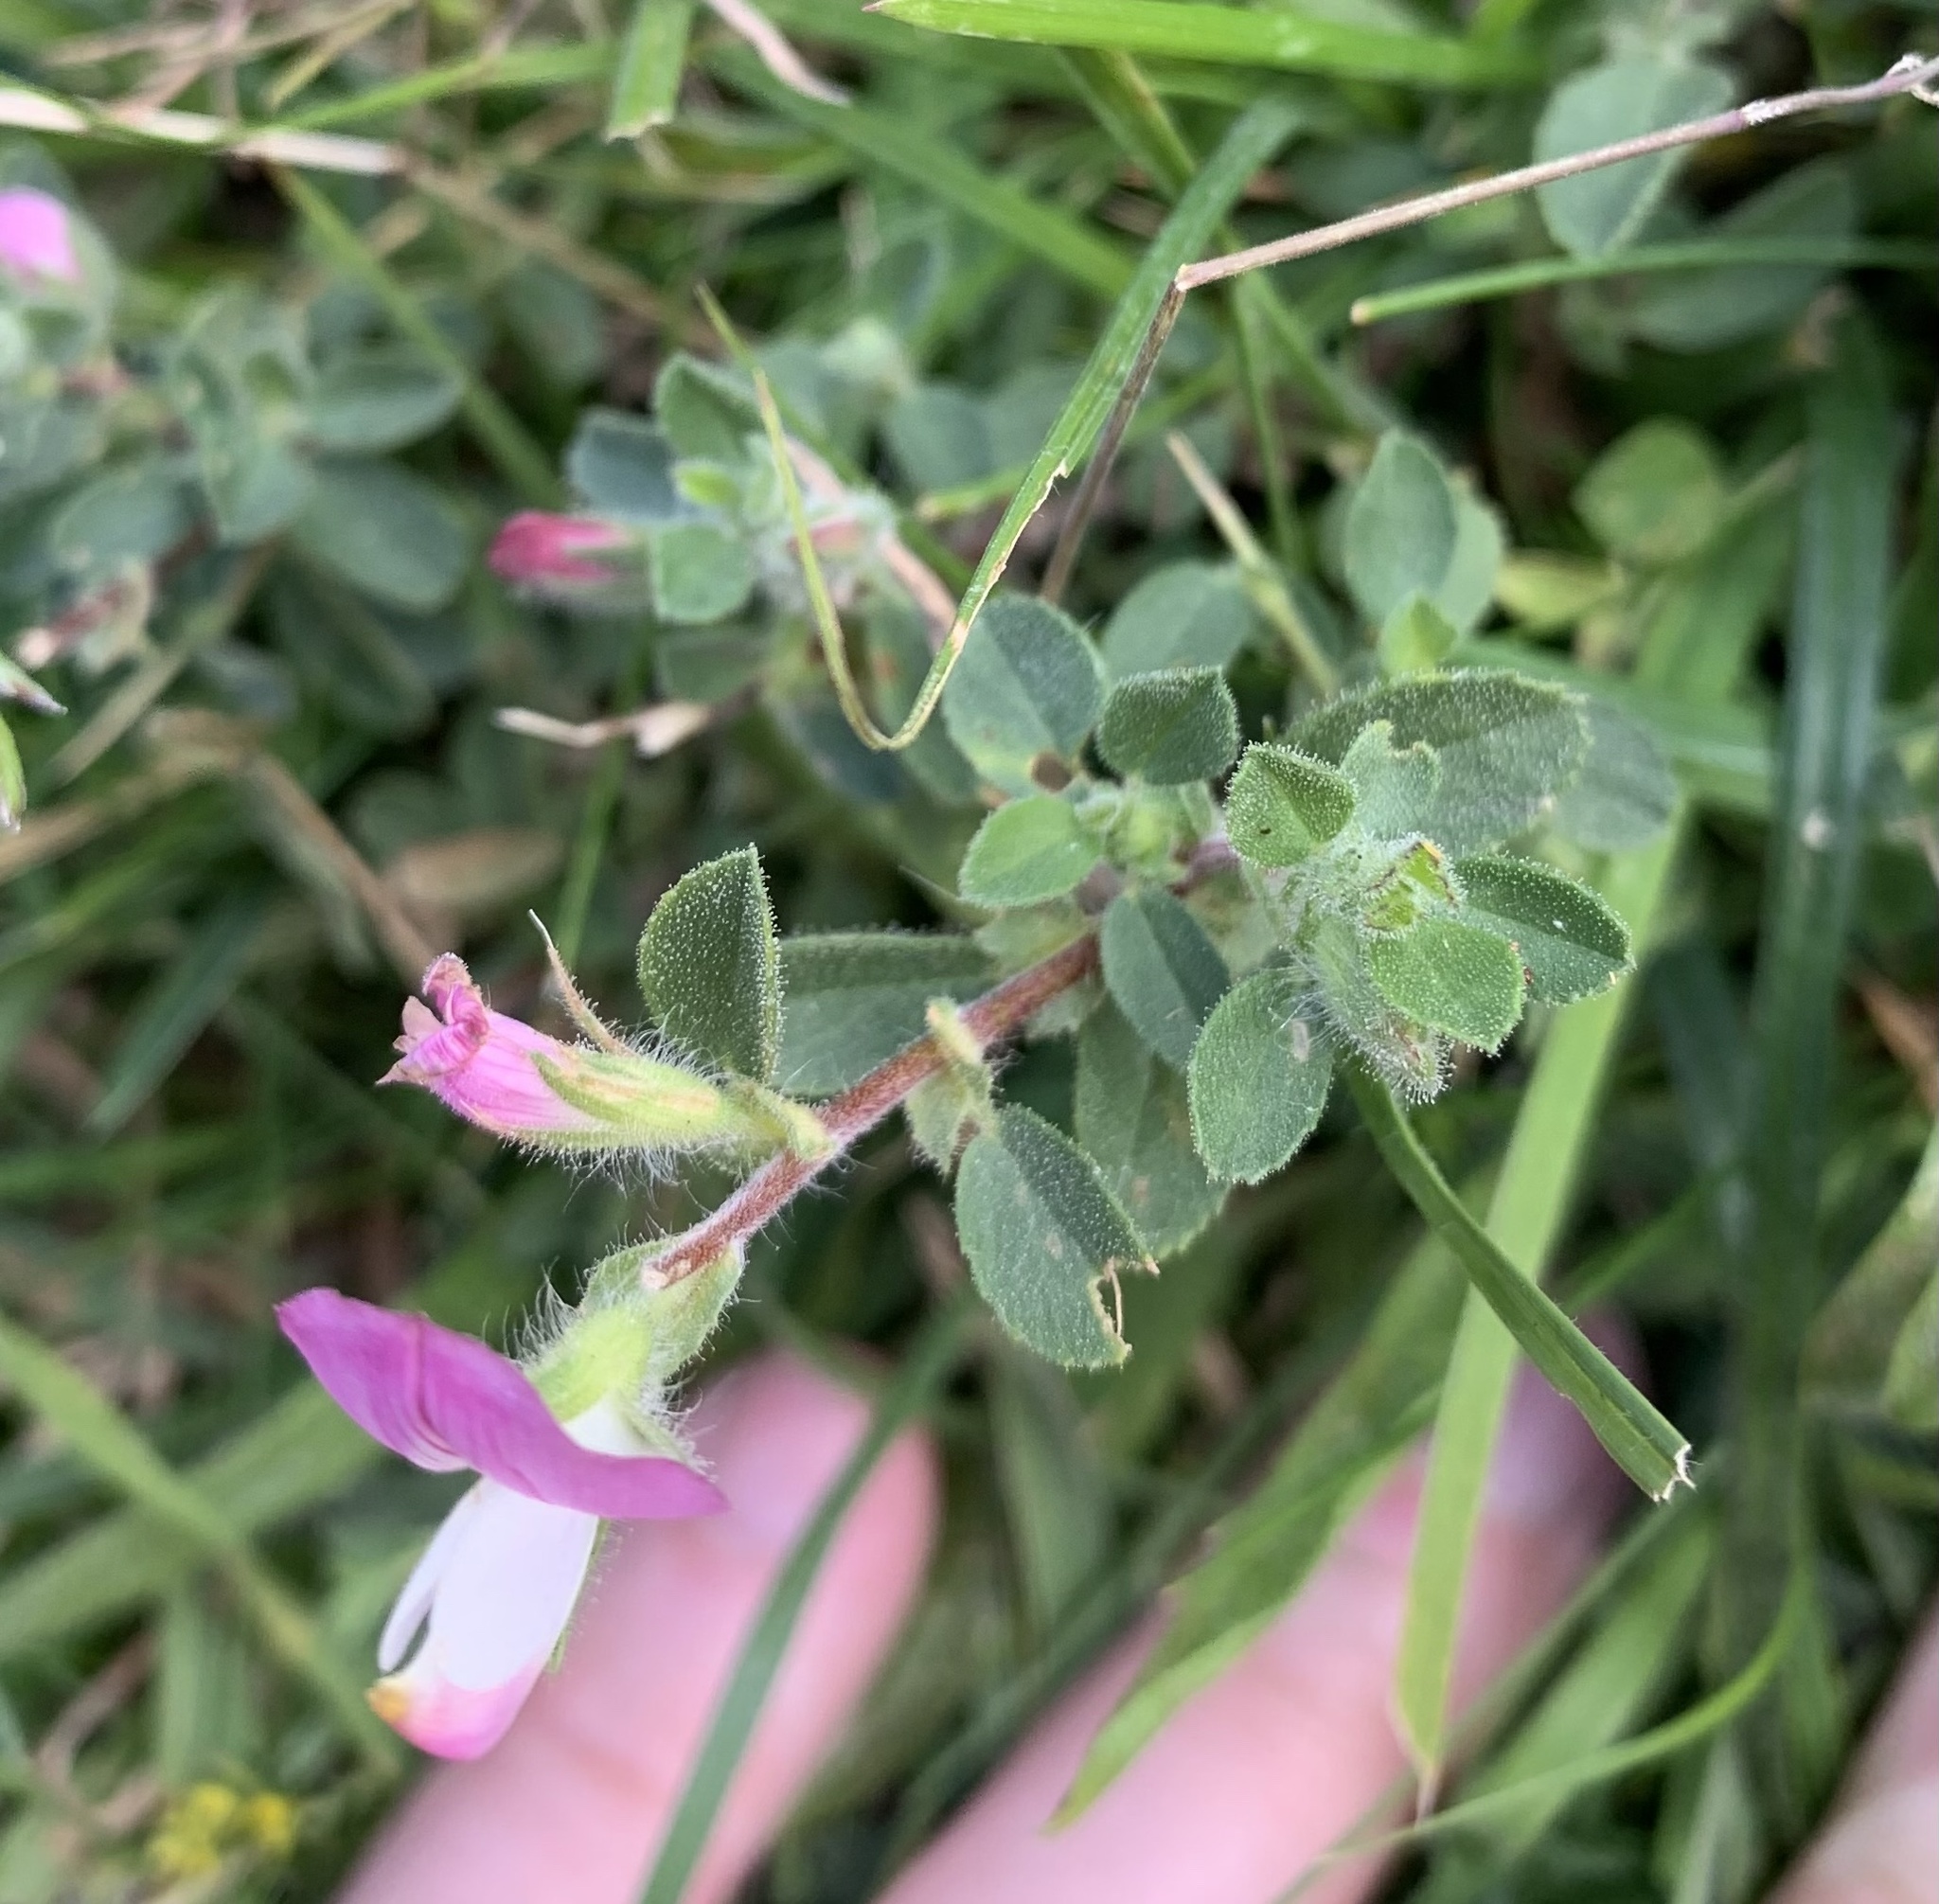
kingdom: Plantae
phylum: Tracheophyta
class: Magnoliopsida
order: Fabales
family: Fabaceae
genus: Ononis
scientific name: Ononis spinosa
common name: Spiny restharrow
